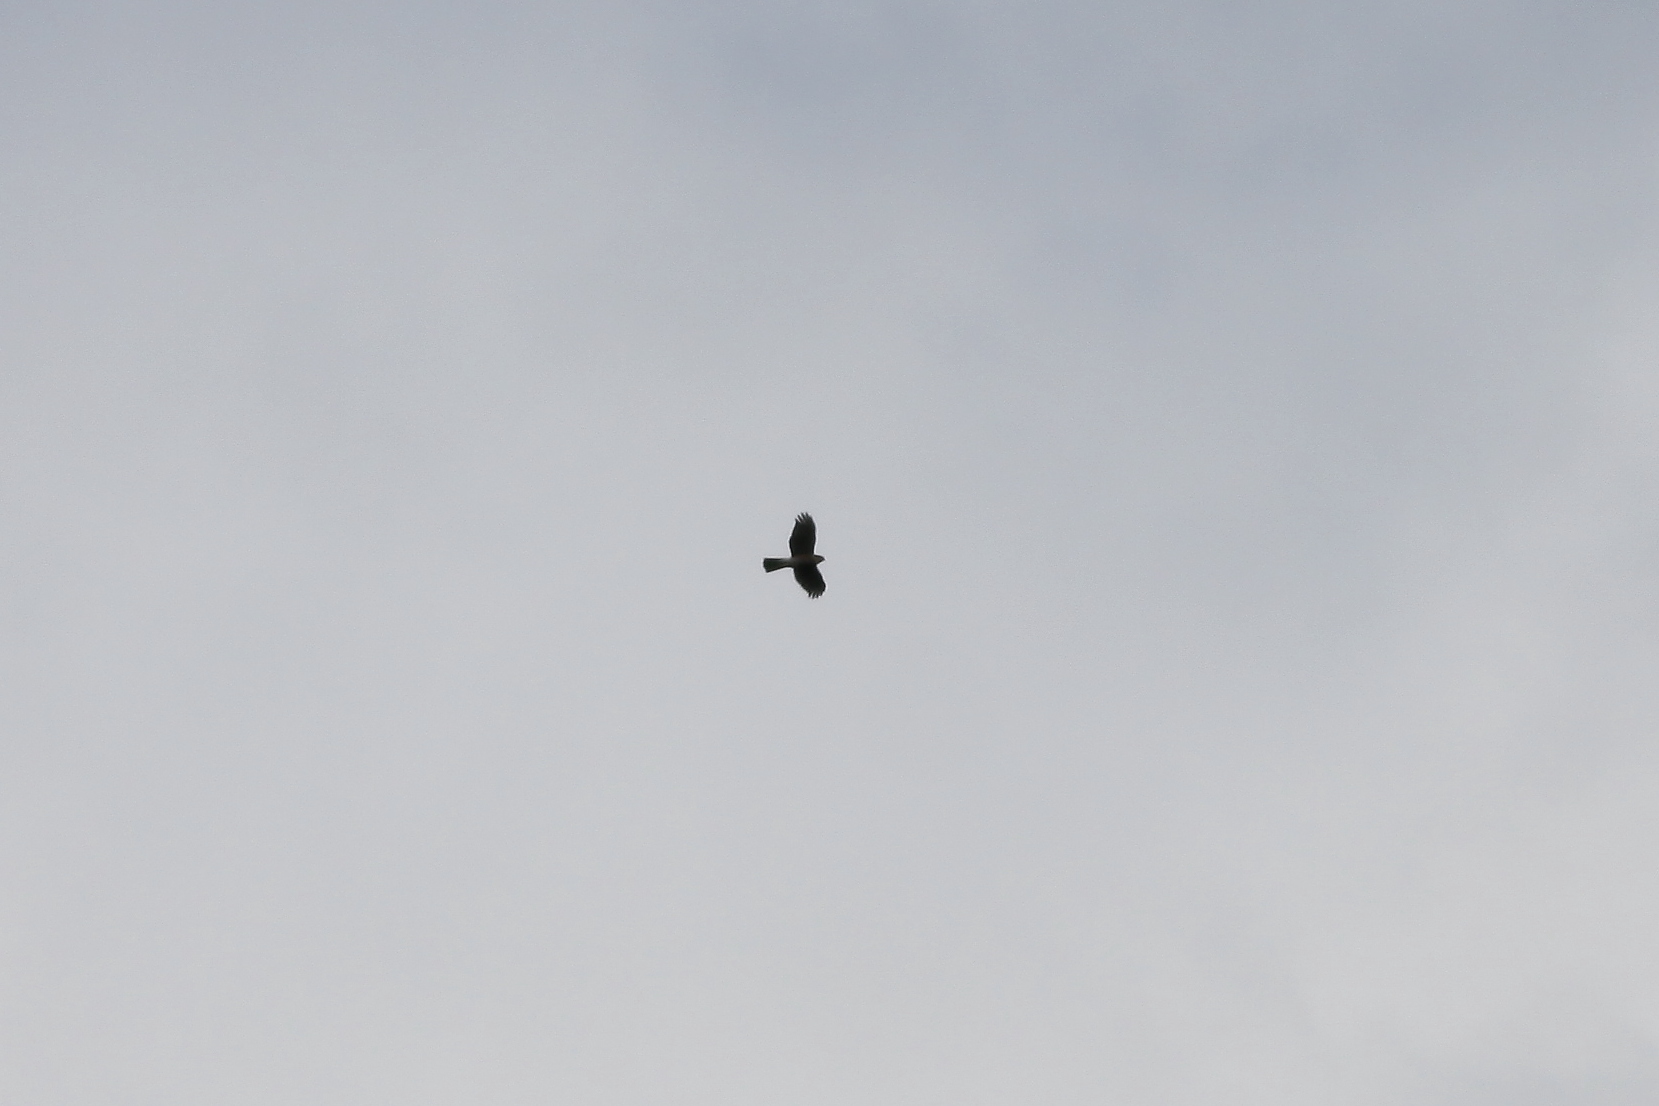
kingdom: Animalia
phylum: Chordata
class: Aves
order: Accipitriformes
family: Accipitridae
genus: Accipiter
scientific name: Accipiter striatus
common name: Sharp-shinned hawk
